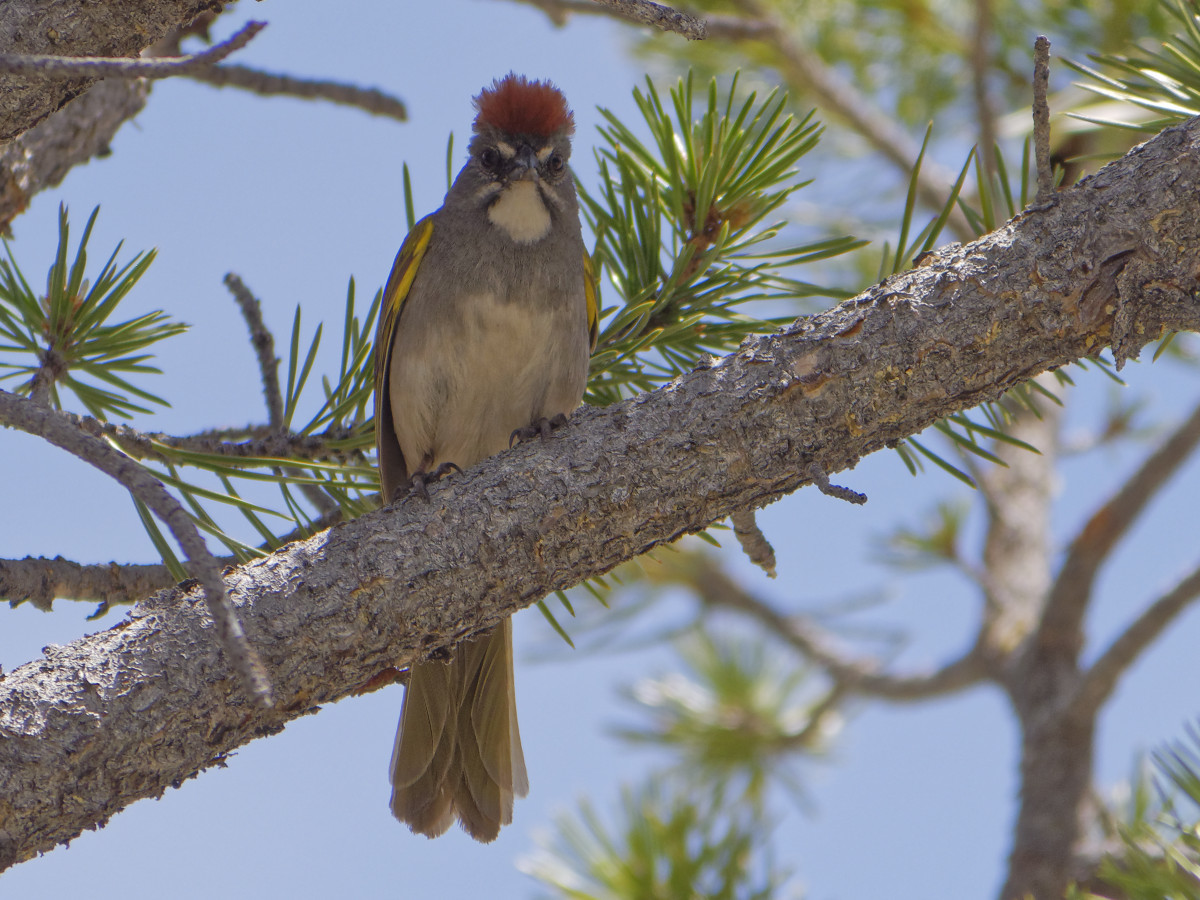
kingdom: Animalia
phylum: Chordata
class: Aves
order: Passeriformes
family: Passerellidae
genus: Pipilo
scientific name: Pipilo chlorurus
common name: Green-tailed towhee
